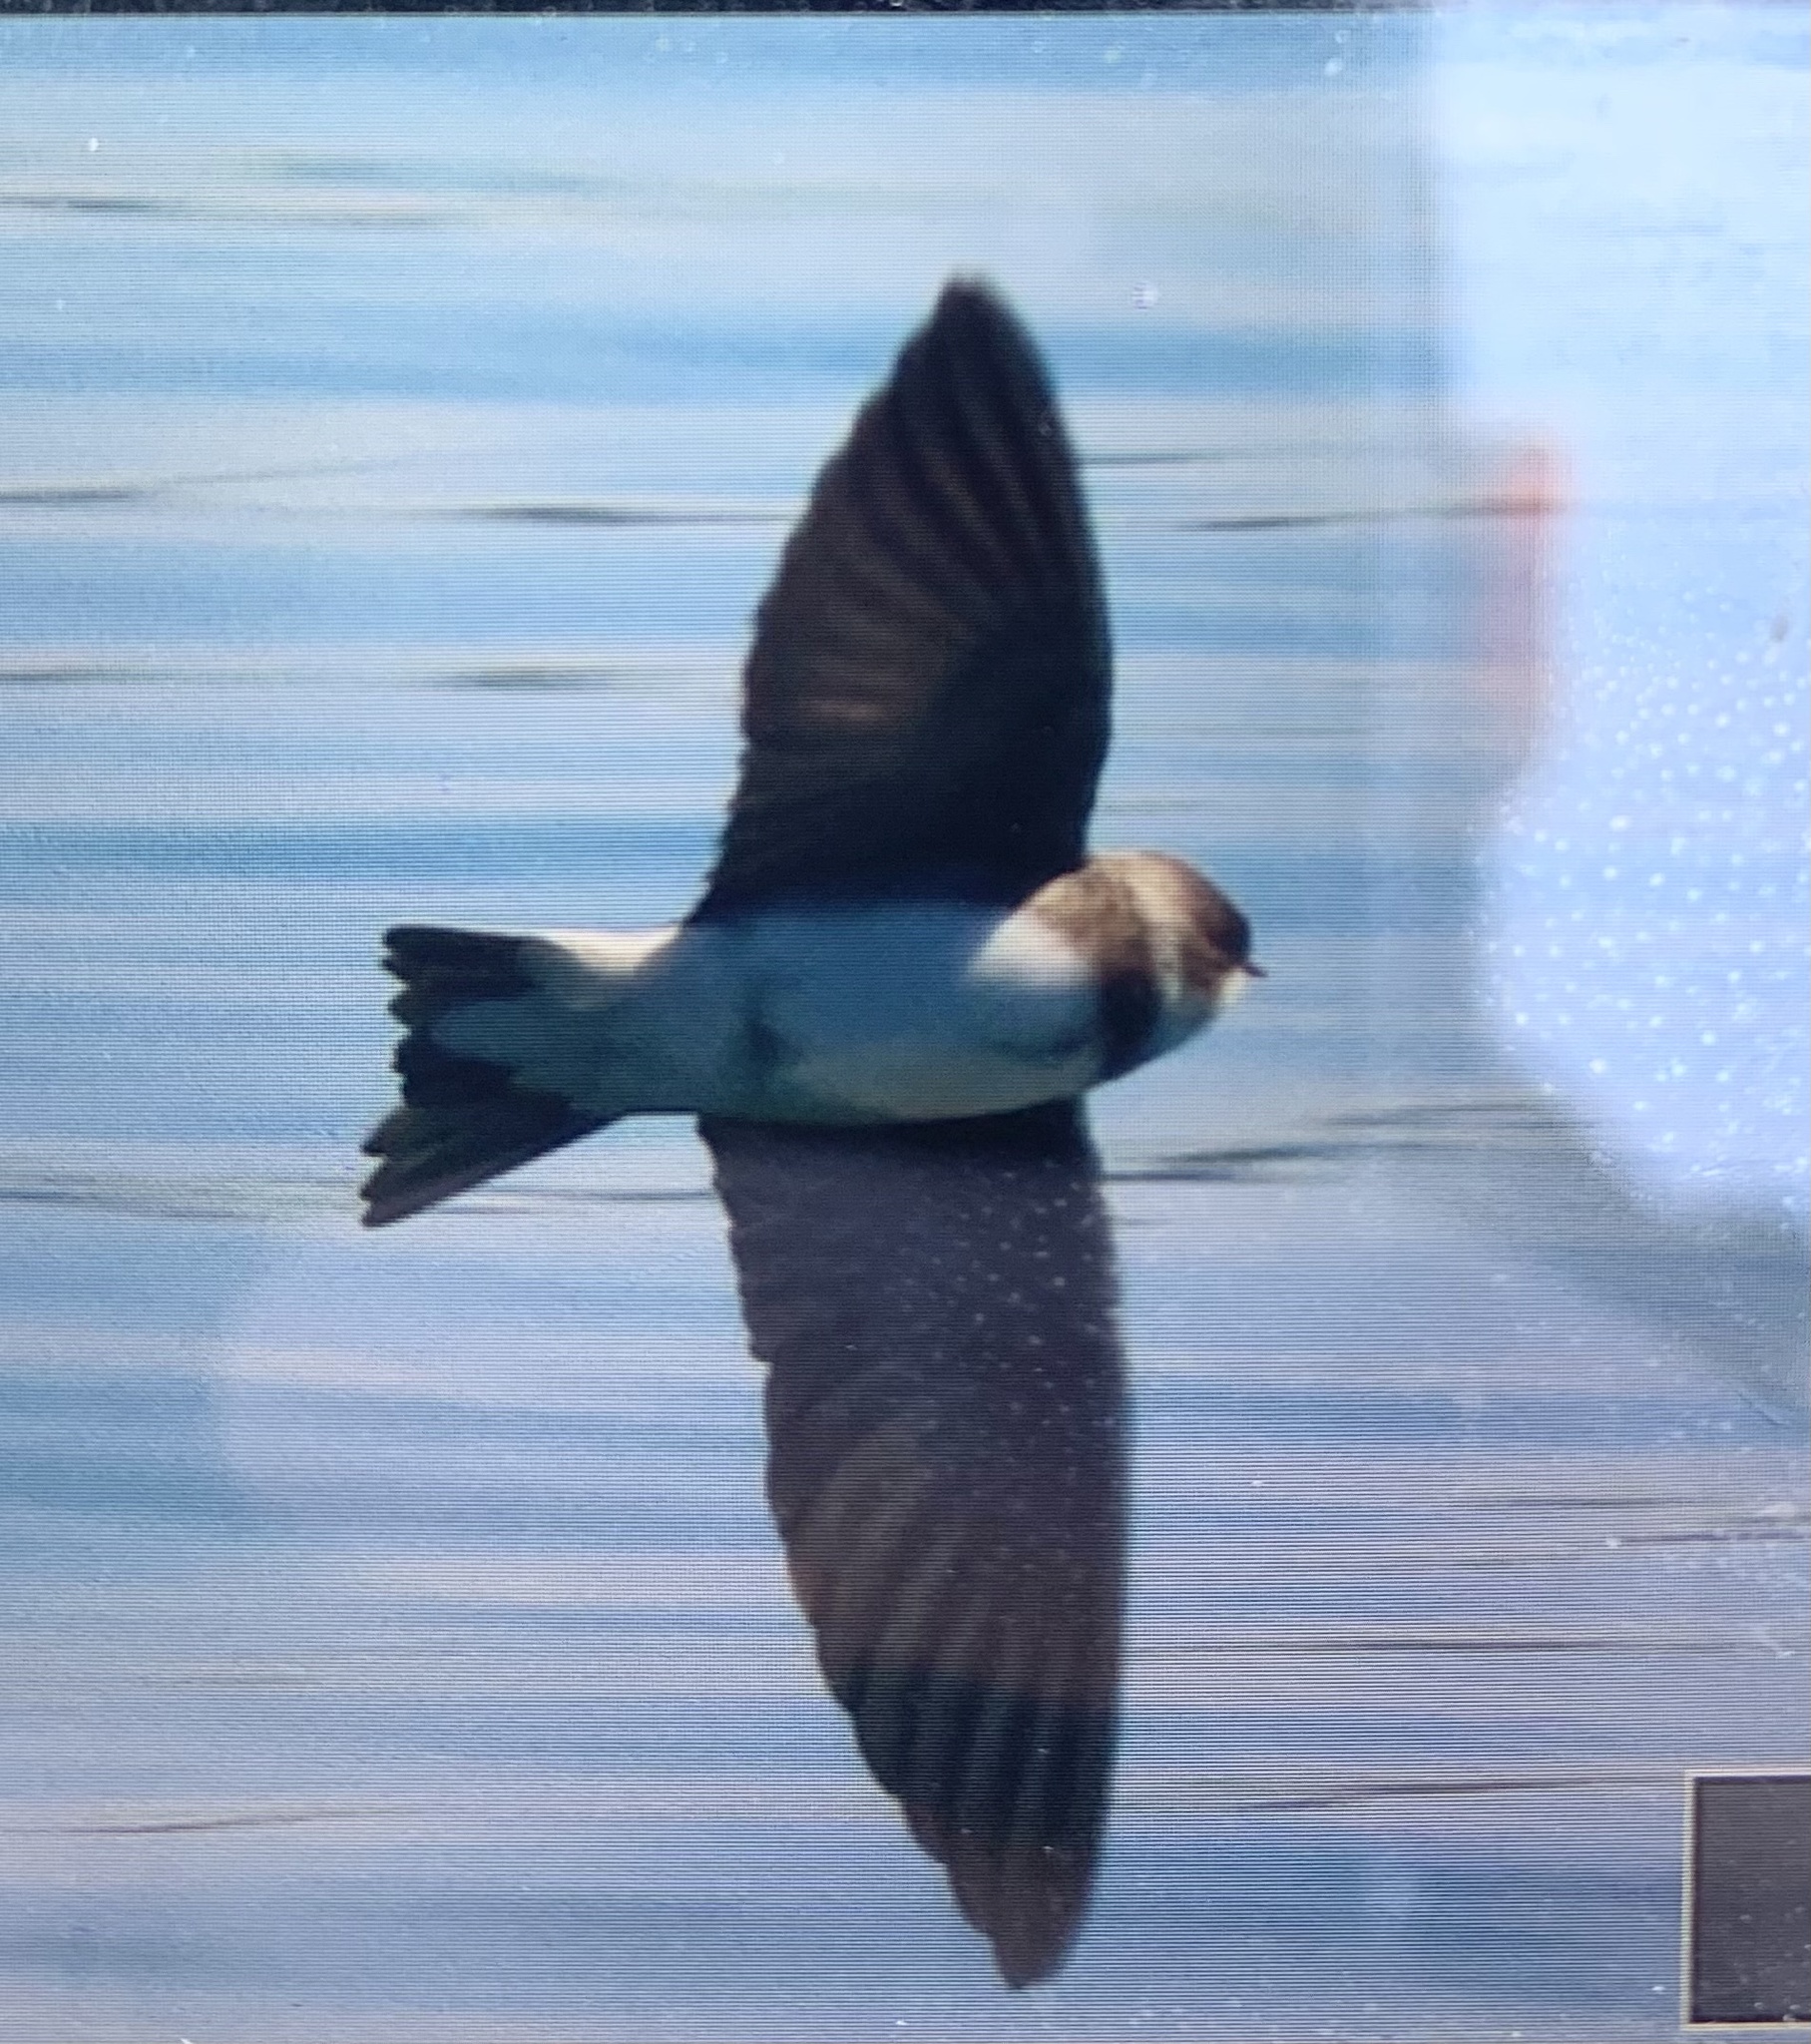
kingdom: Animalia
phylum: Chordata
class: Aves
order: Passeriformes
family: Hirundinidae
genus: Riparia
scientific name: Riparia riparia
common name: Sand martin
